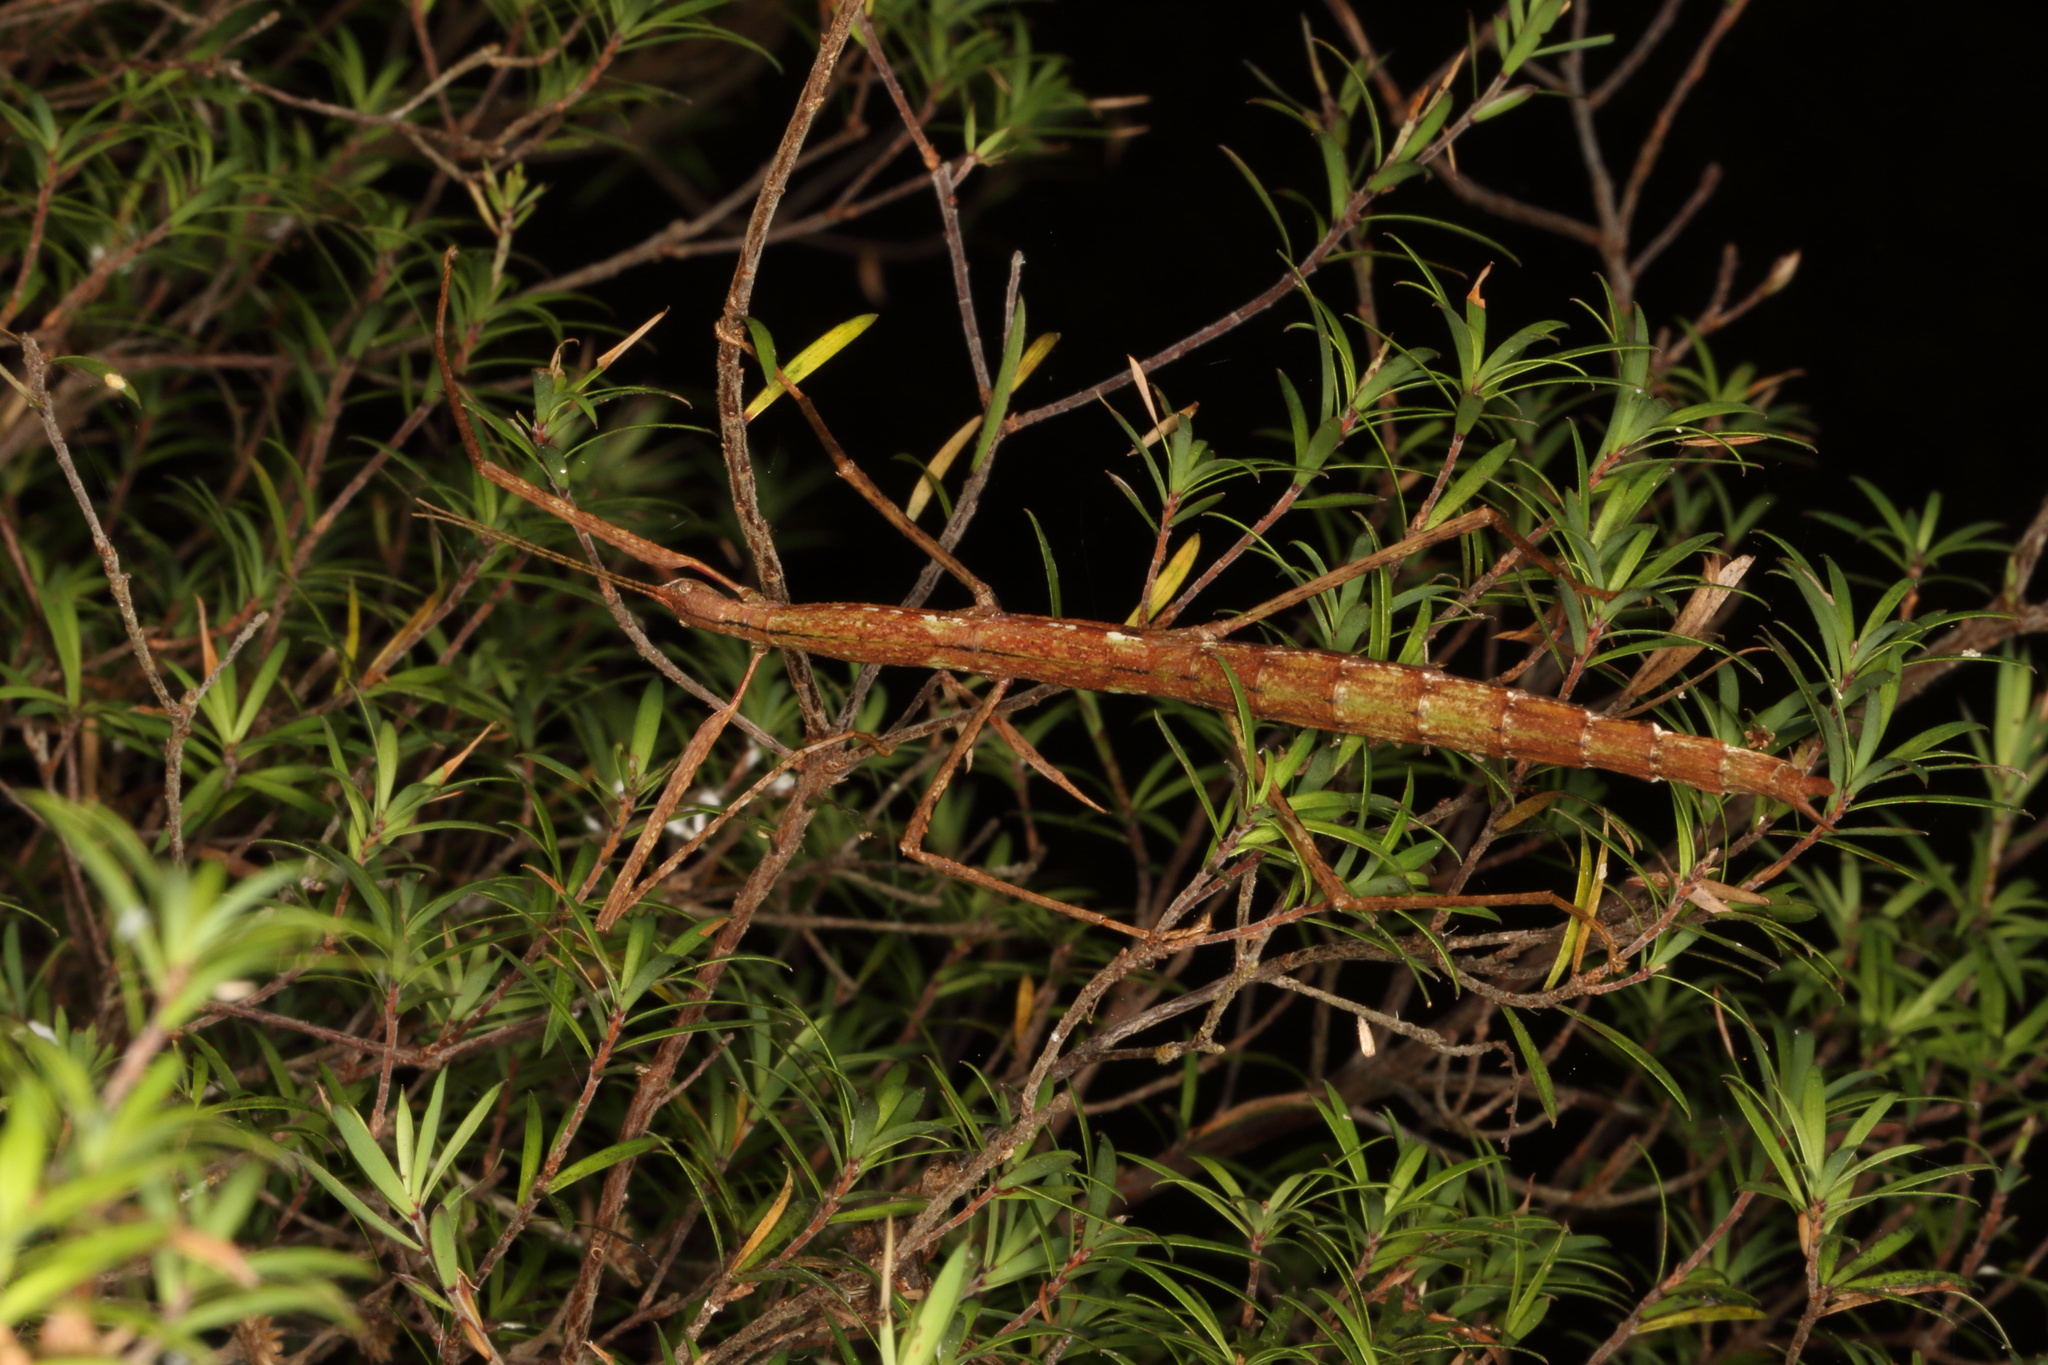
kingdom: Animalia
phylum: Arthropoda
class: Insecta
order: Phasmida
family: Phasmatidae
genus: Clitarchus
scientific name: Clitarchus hookeri
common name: Smooth stick insect
